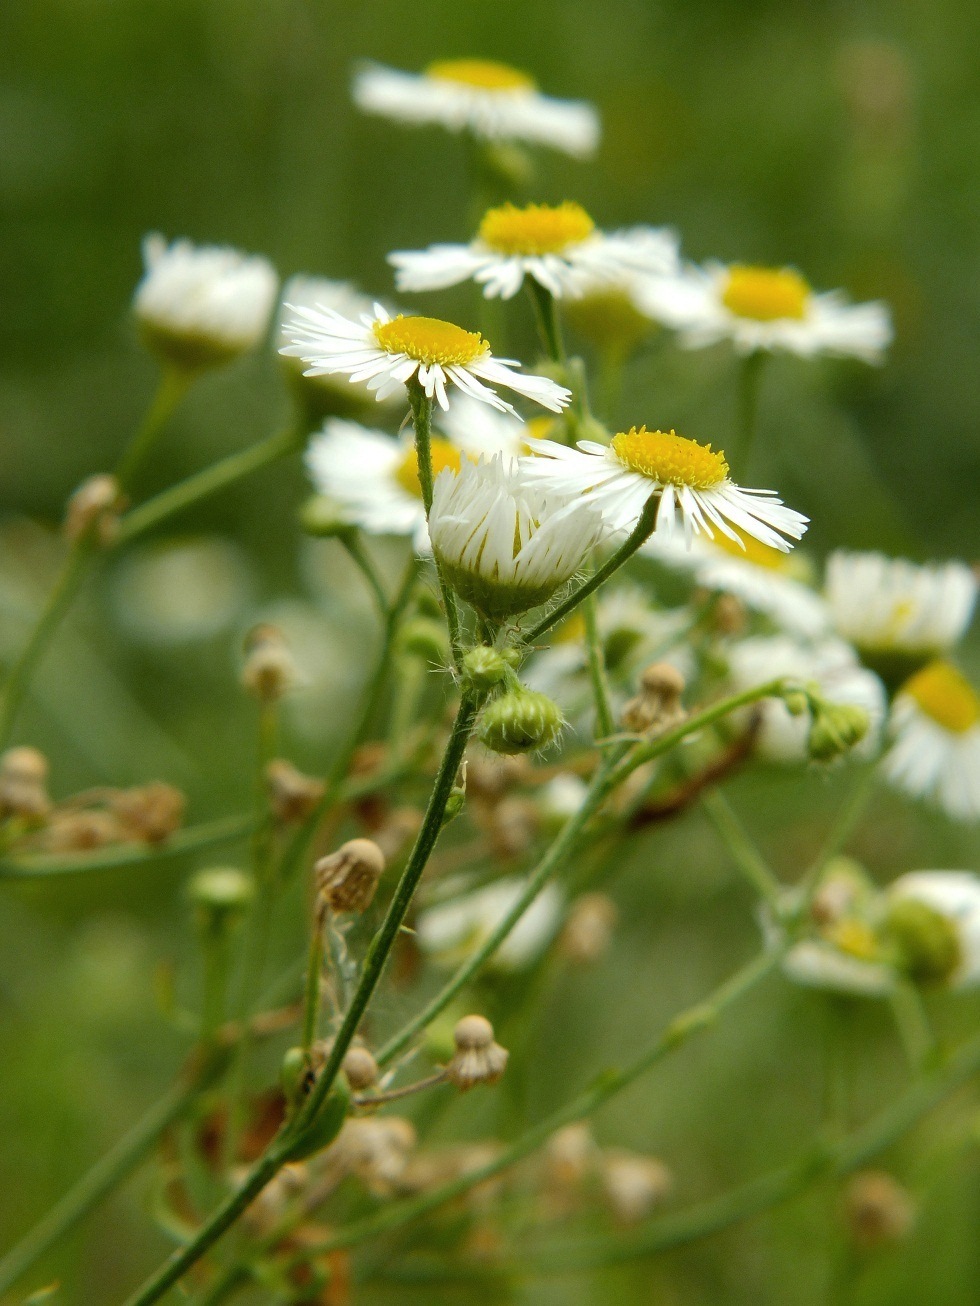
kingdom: Plantae
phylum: Tracheophyta
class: Magnoliopsida
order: Asterales
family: Asteraceae
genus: Erigeron
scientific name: Erigeron annuus
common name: Tall fleabane
